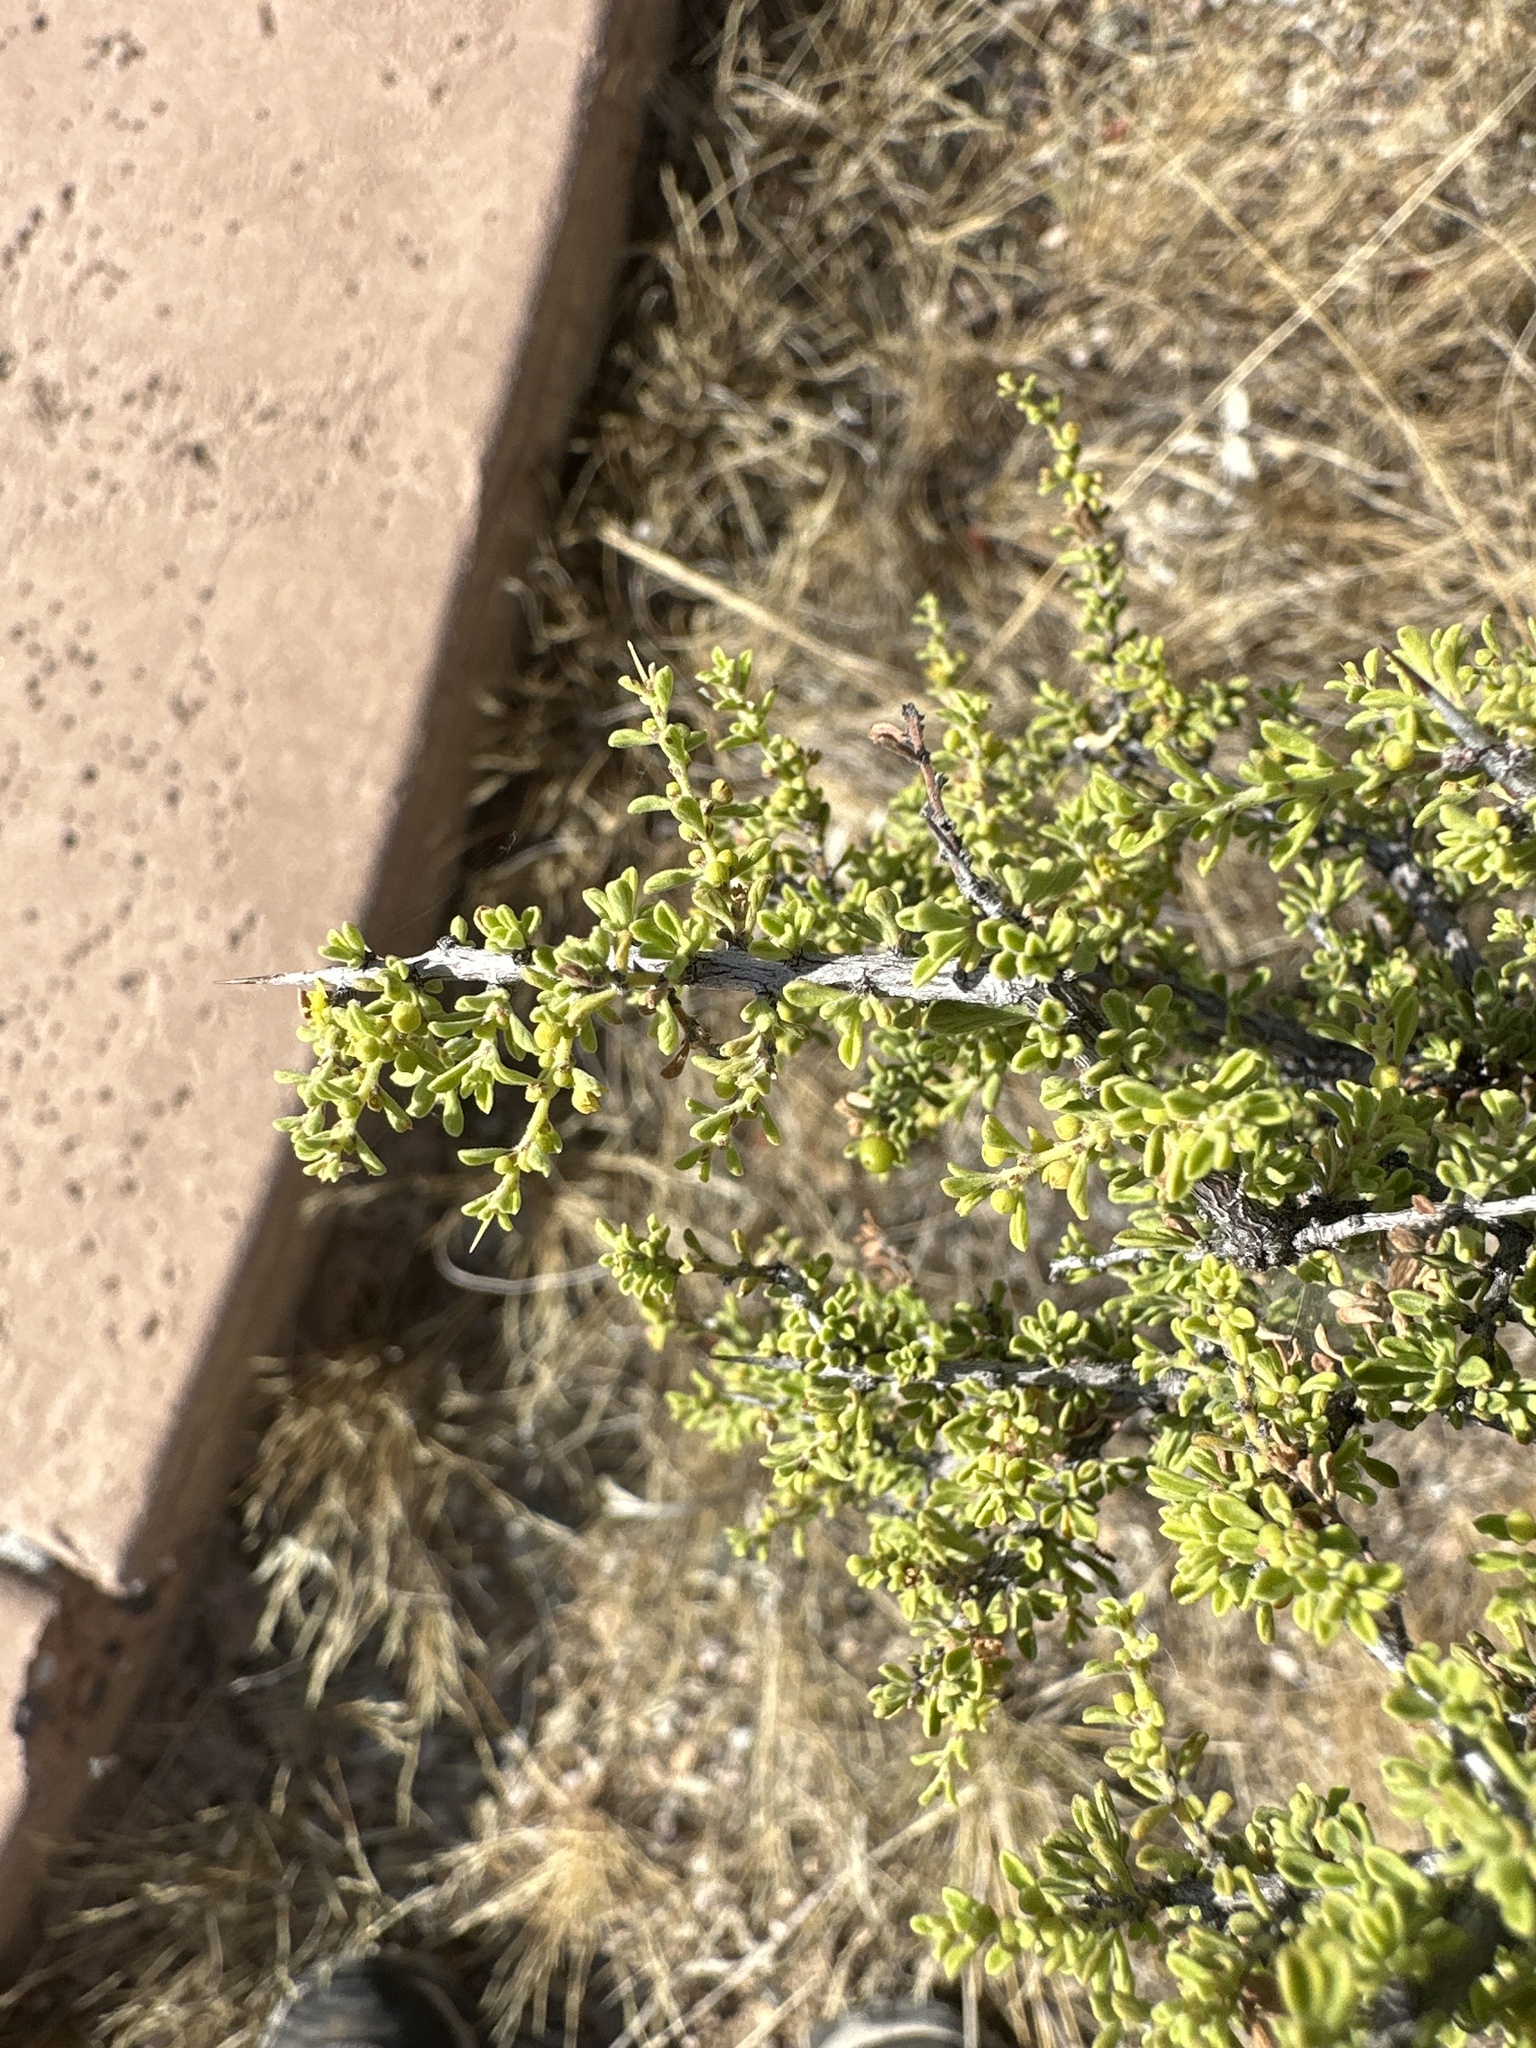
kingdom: Plantae
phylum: Tracheophyta
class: Magnoliopsida
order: Rosales
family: Rhamnaceae
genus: Condalia
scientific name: Condalia warnockii
